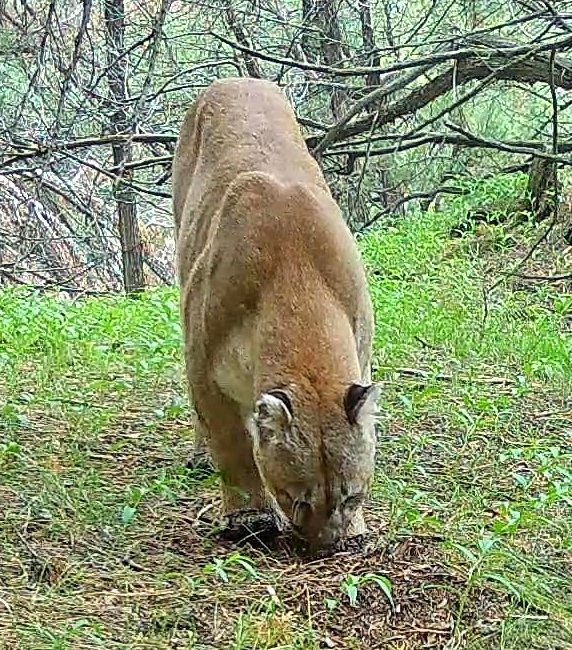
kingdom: Animalia
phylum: Chordata
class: Mammalia
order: Carnivora
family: Felidae
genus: Puma
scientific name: Puma concolor
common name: Puma
